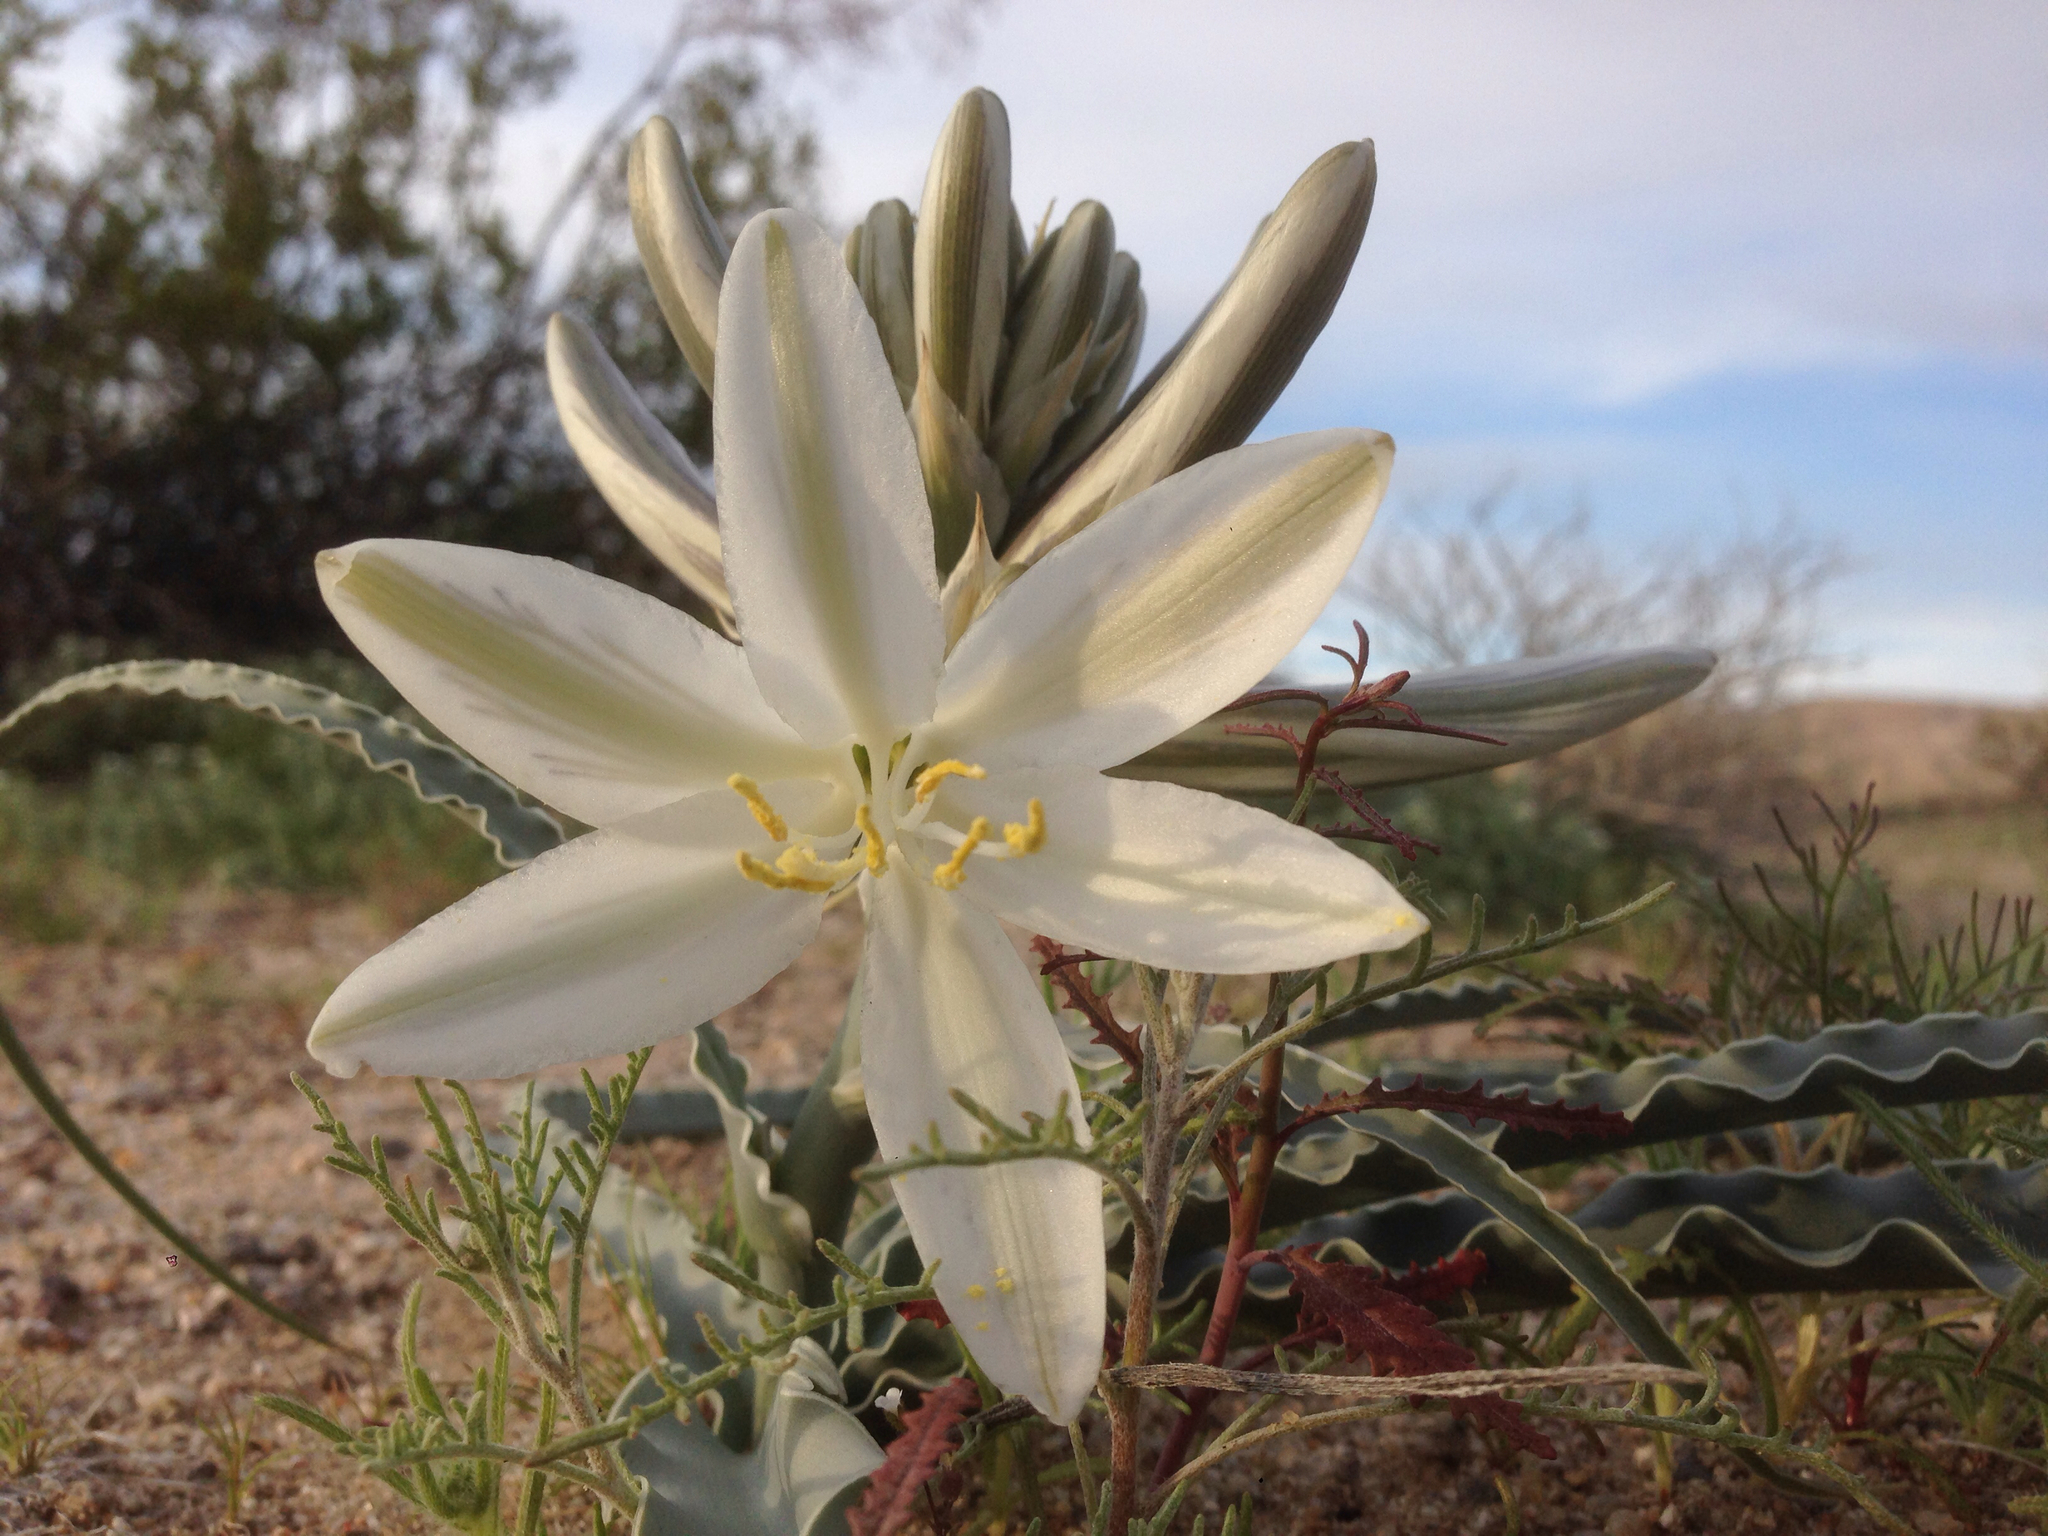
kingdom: Plantae
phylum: Tracheophyta
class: Liliopsida
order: Asparagales
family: Asparagaceae
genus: Hesperocallis
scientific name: Hesperocallis undulata
